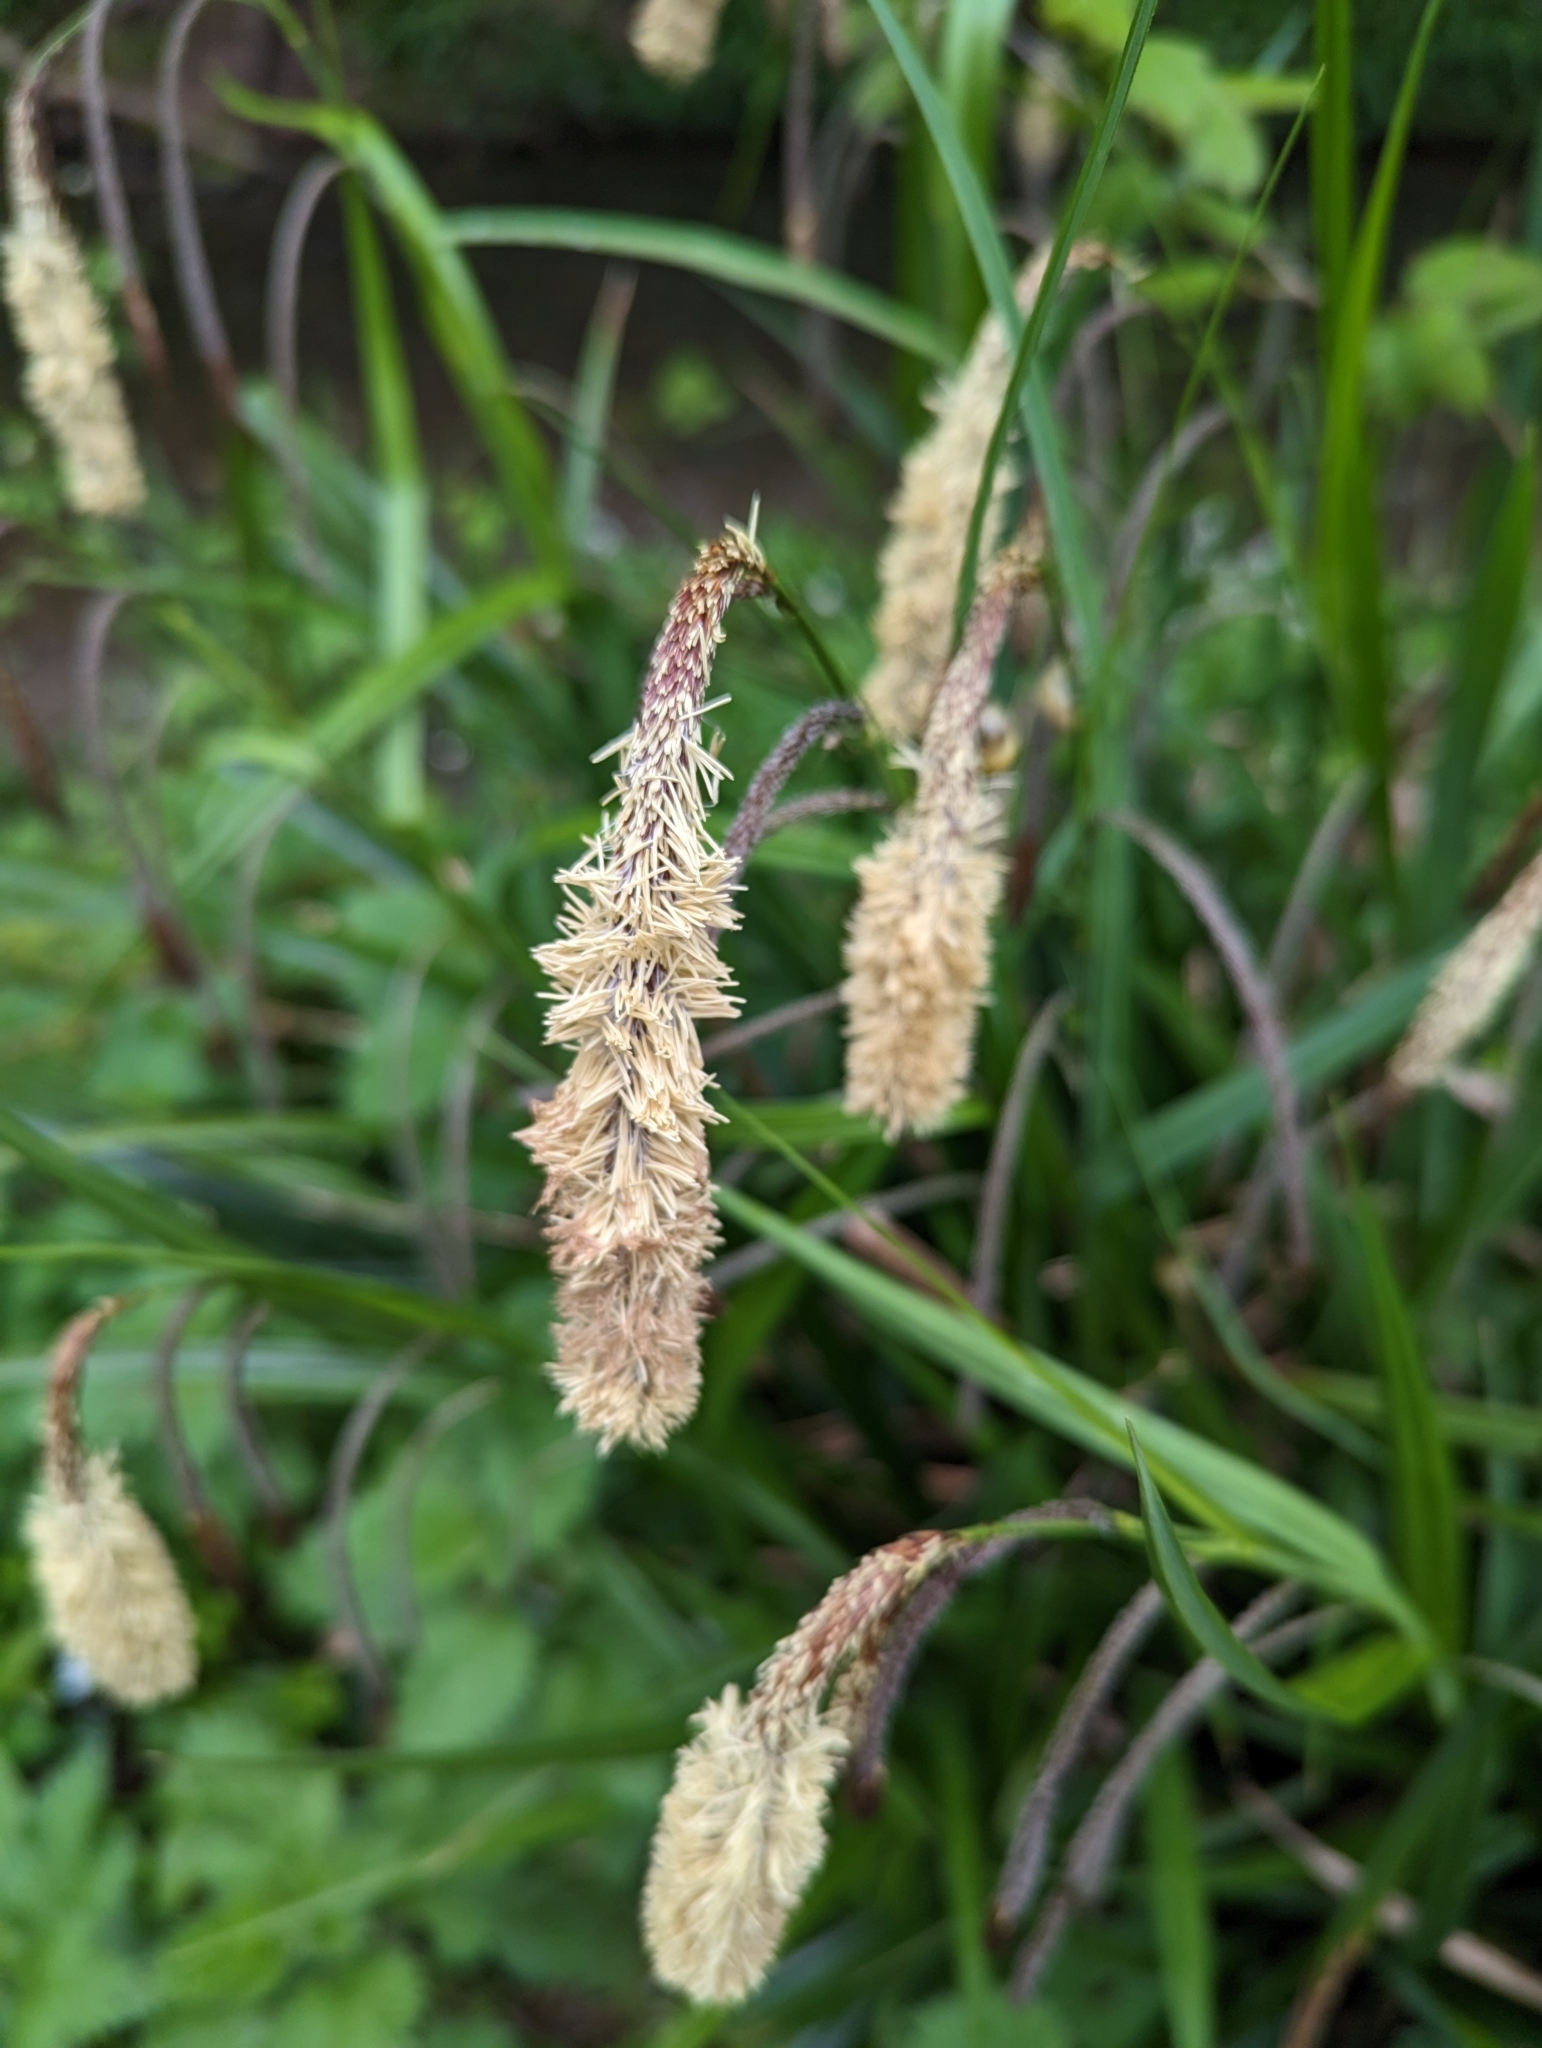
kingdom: Plantae
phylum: Tracheophyta
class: Liliopsida
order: Poales
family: Cyperaceae
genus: Carex
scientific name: Carex pendula
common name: Pendulous sedge
